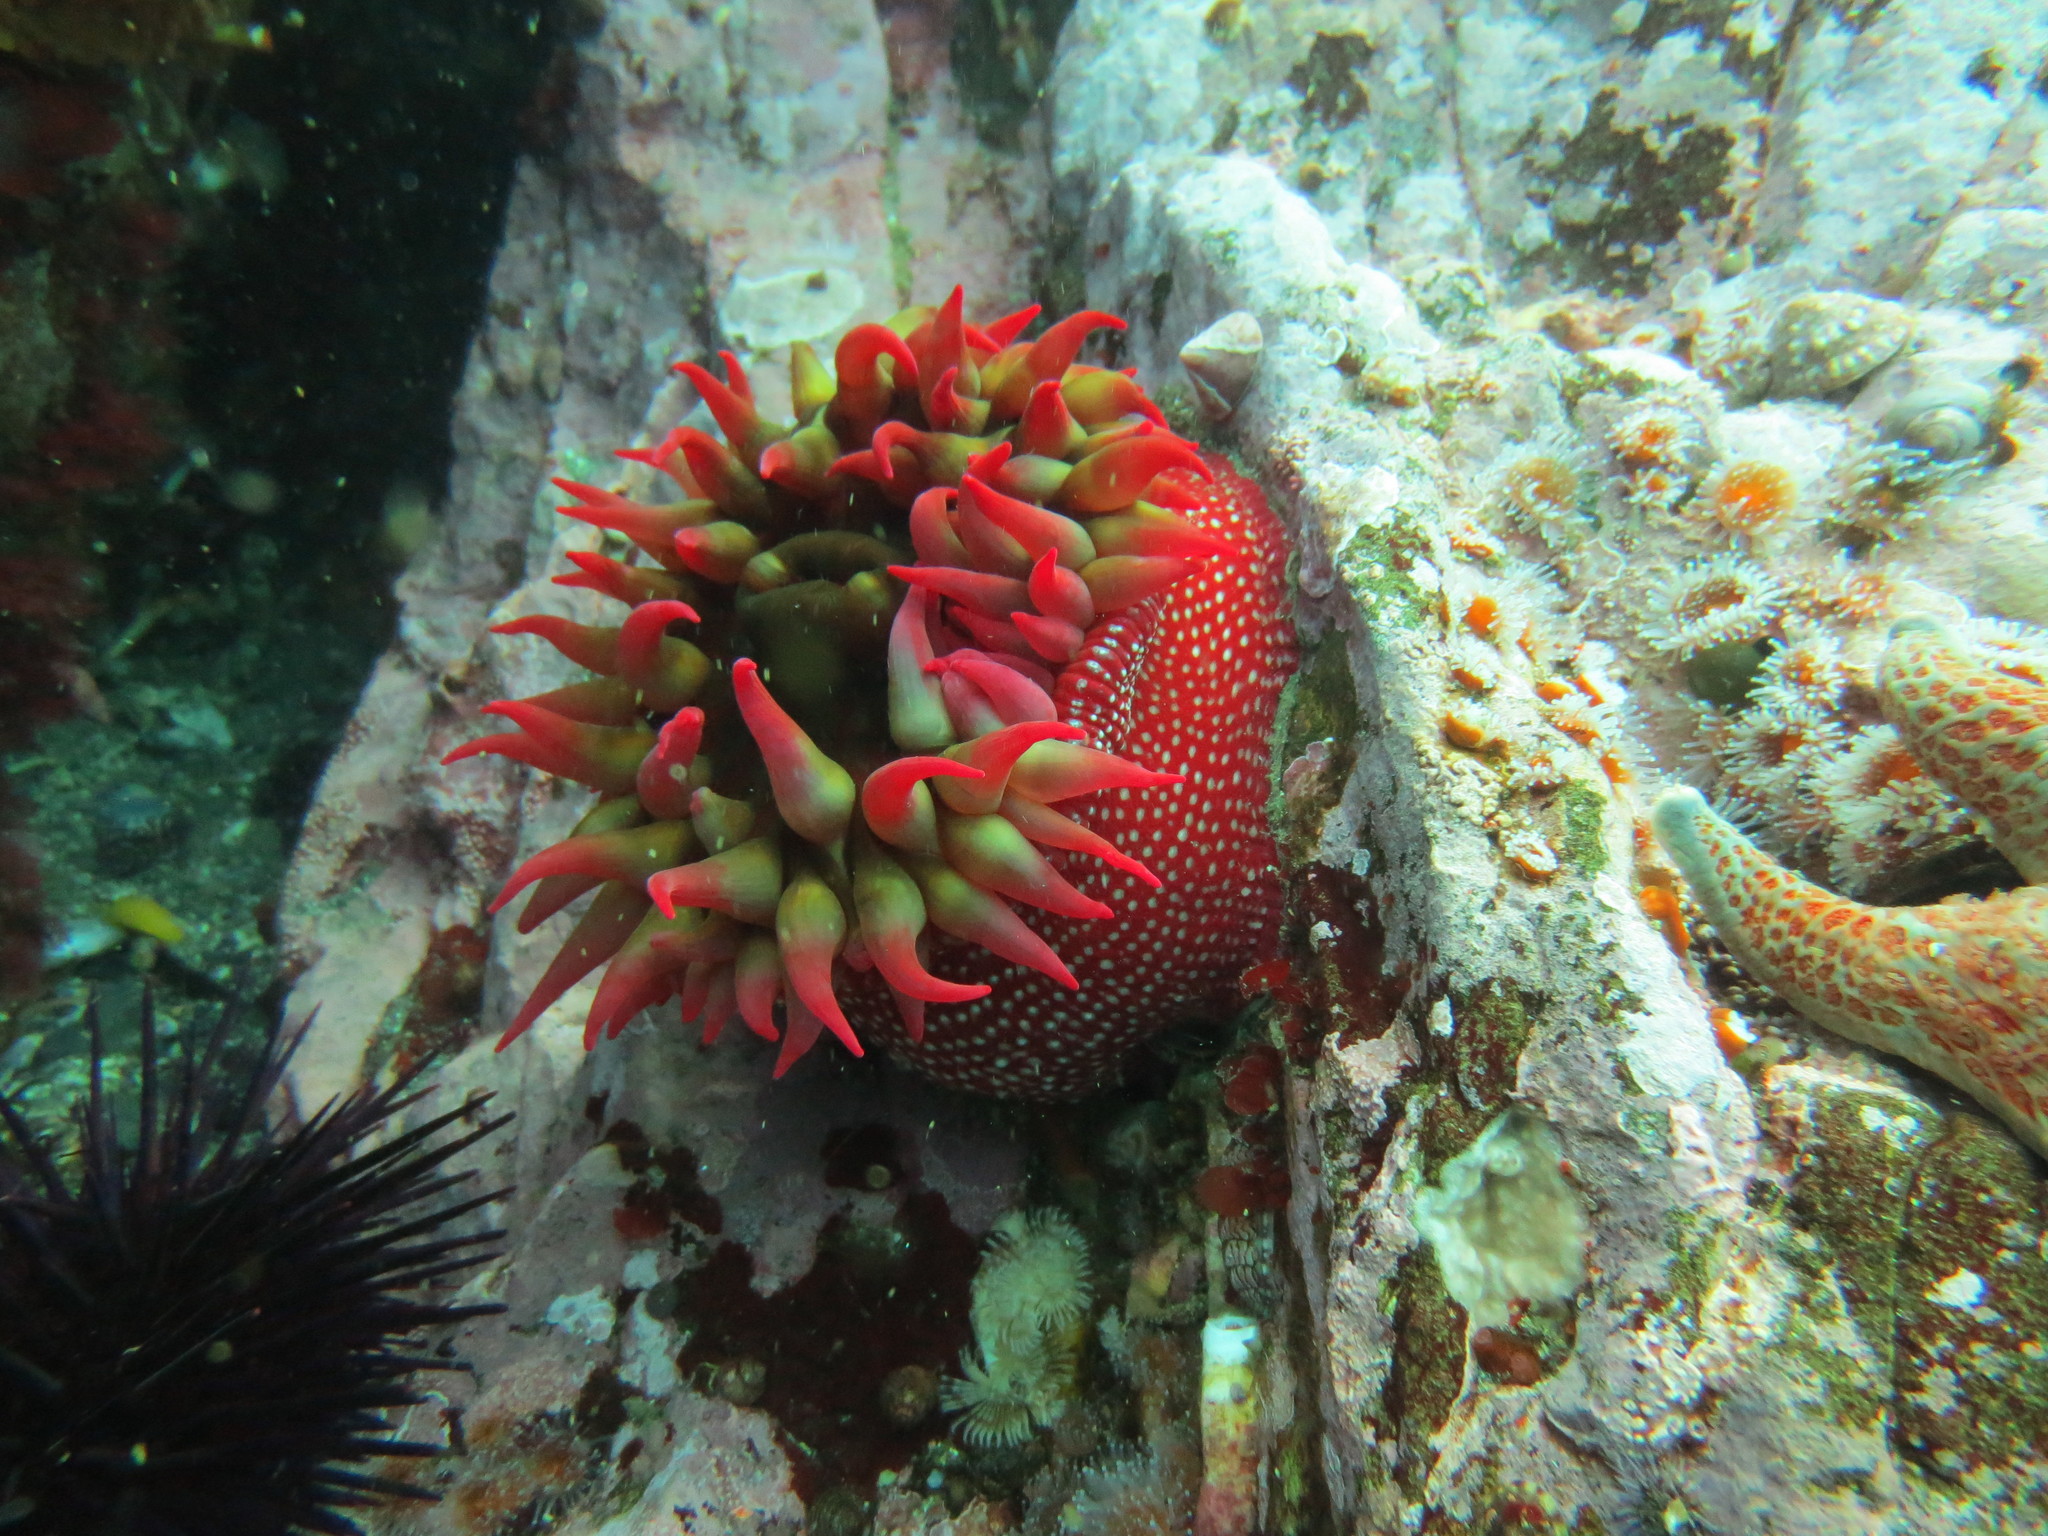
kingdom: Animalia
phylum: Cnidaria
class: Anthozoa
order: Actiniaria
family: Actiniidae
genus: Cribrinopsis
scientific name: Cribrinopsis albopunctata
